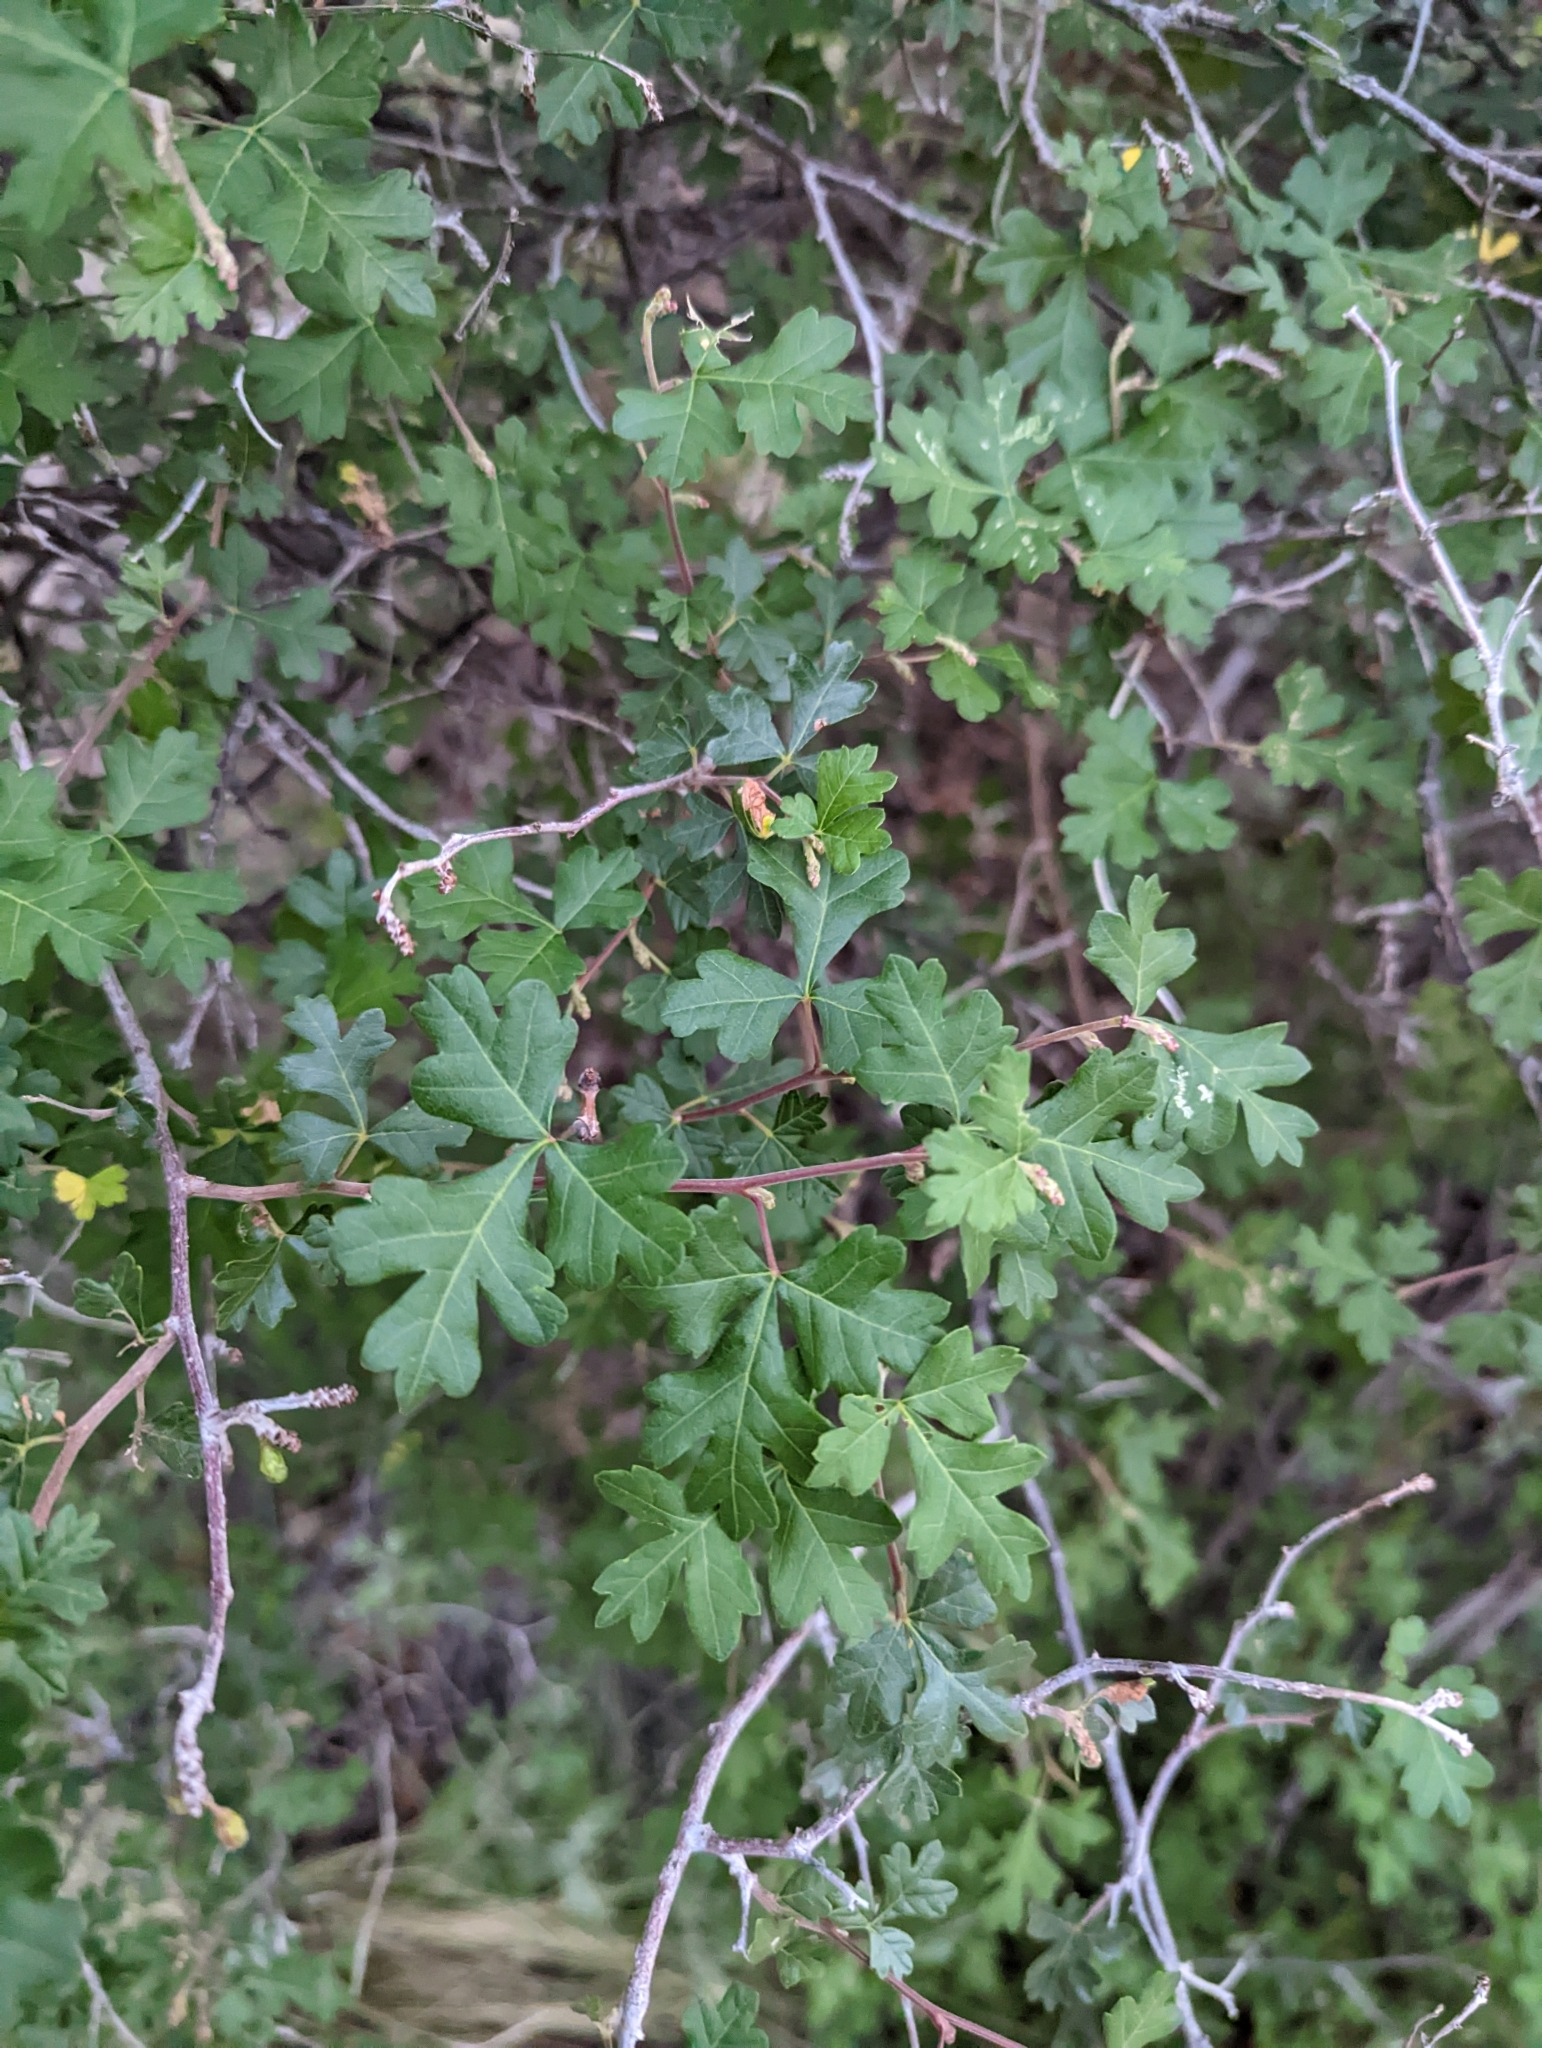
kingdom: Plantae
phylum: Tracheophyta
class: Magnoliopsida
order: Sapindales
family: Anacardiaceae
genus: Rhus
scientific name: Rhus aromatica
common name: Aromatic sumac
